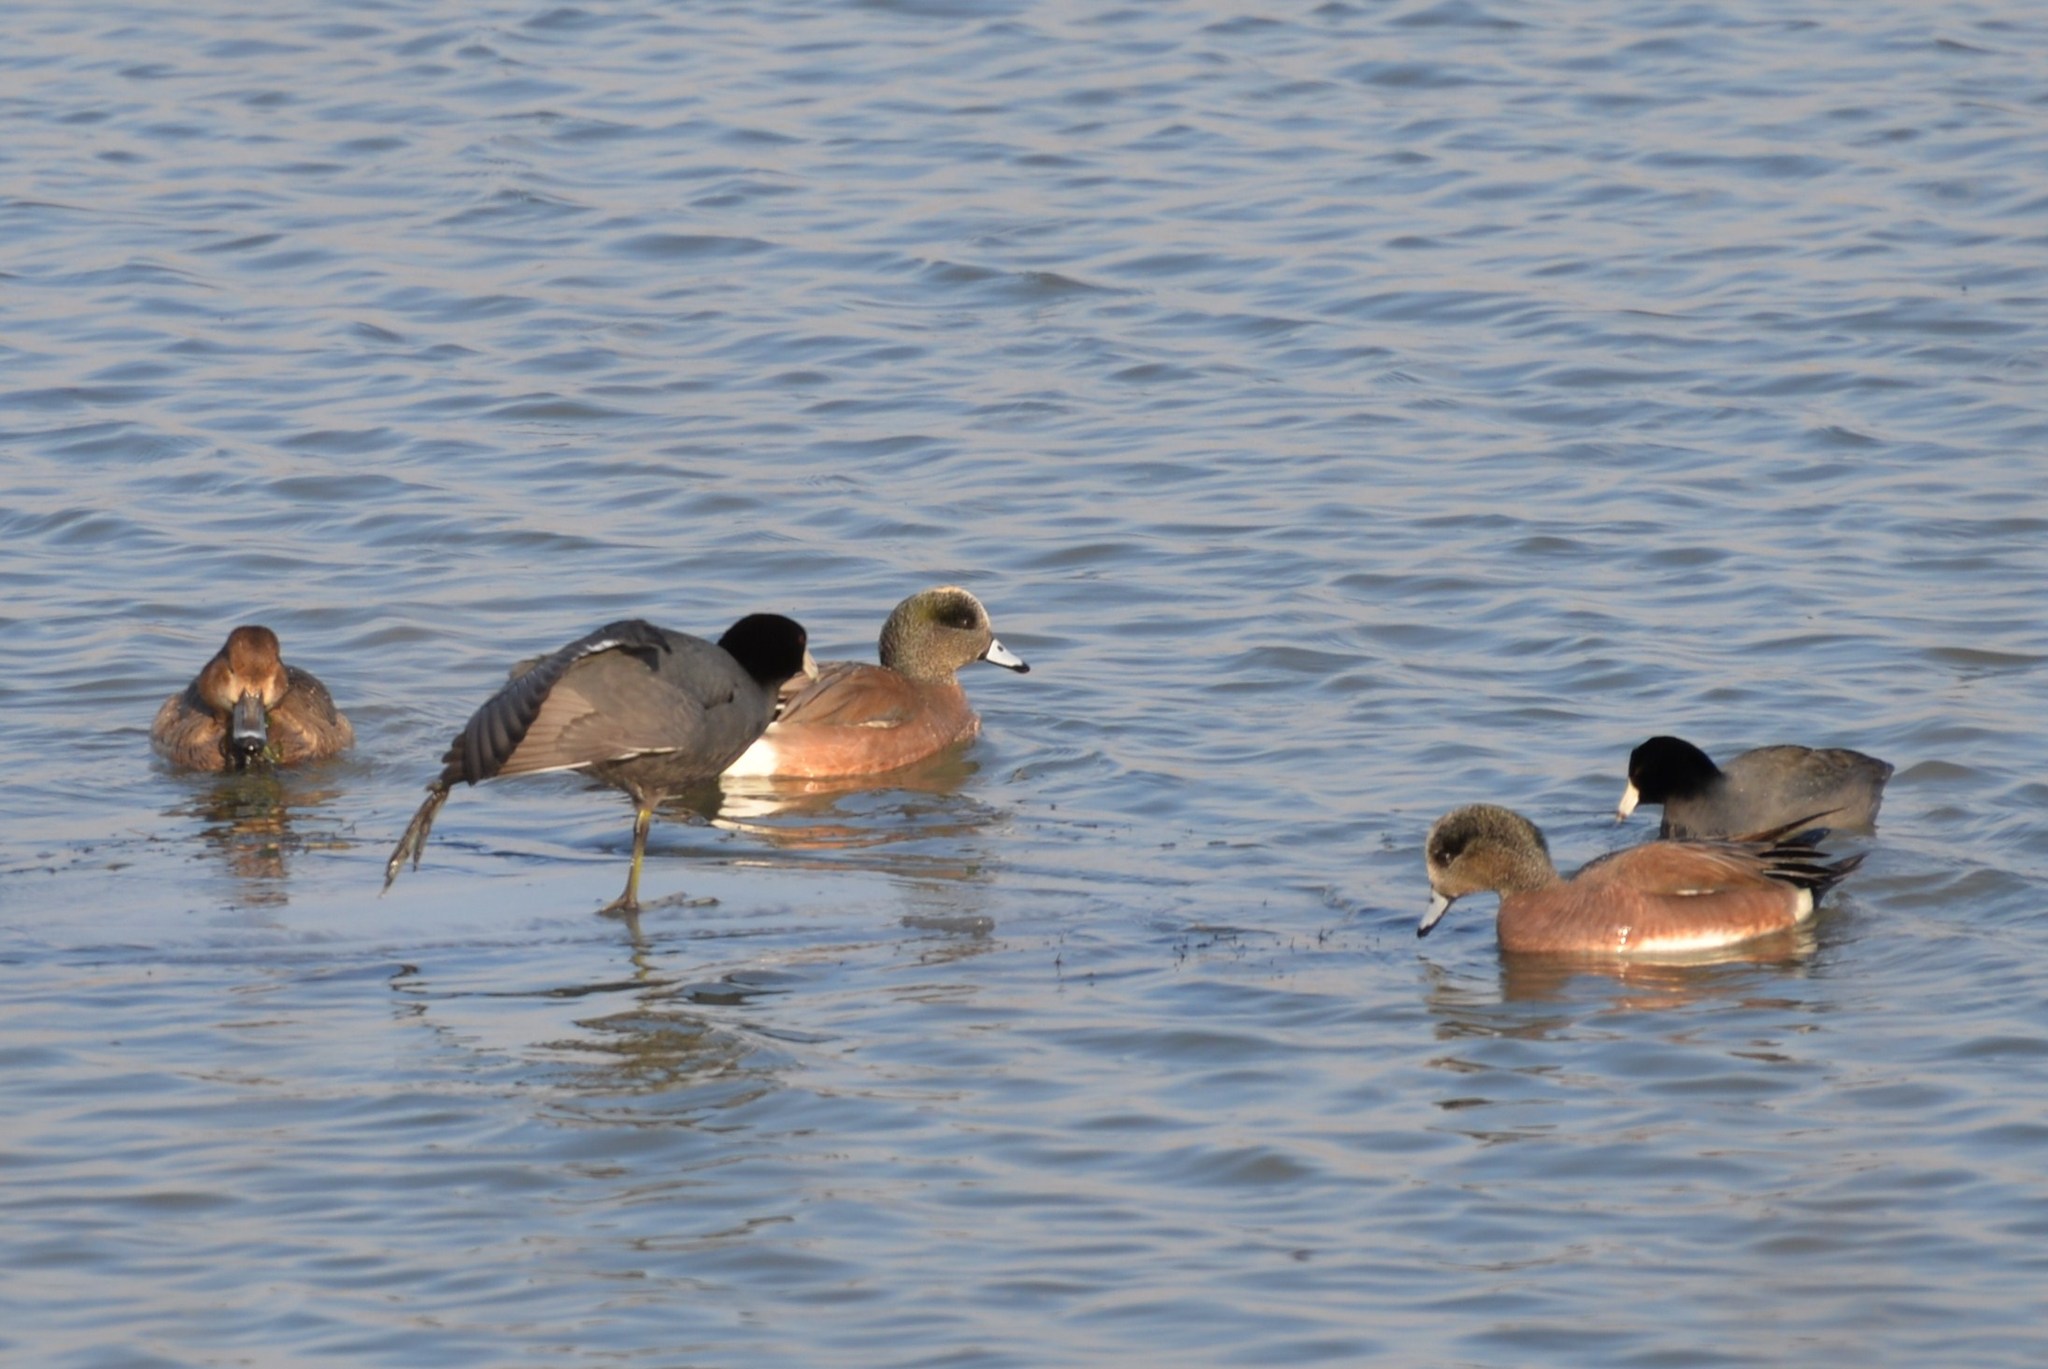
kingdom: Animalia
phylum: Chordata
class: Aves
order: Gruiformes
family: Rallidae
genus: Fulica
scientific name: Fulica americana
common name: American coot
